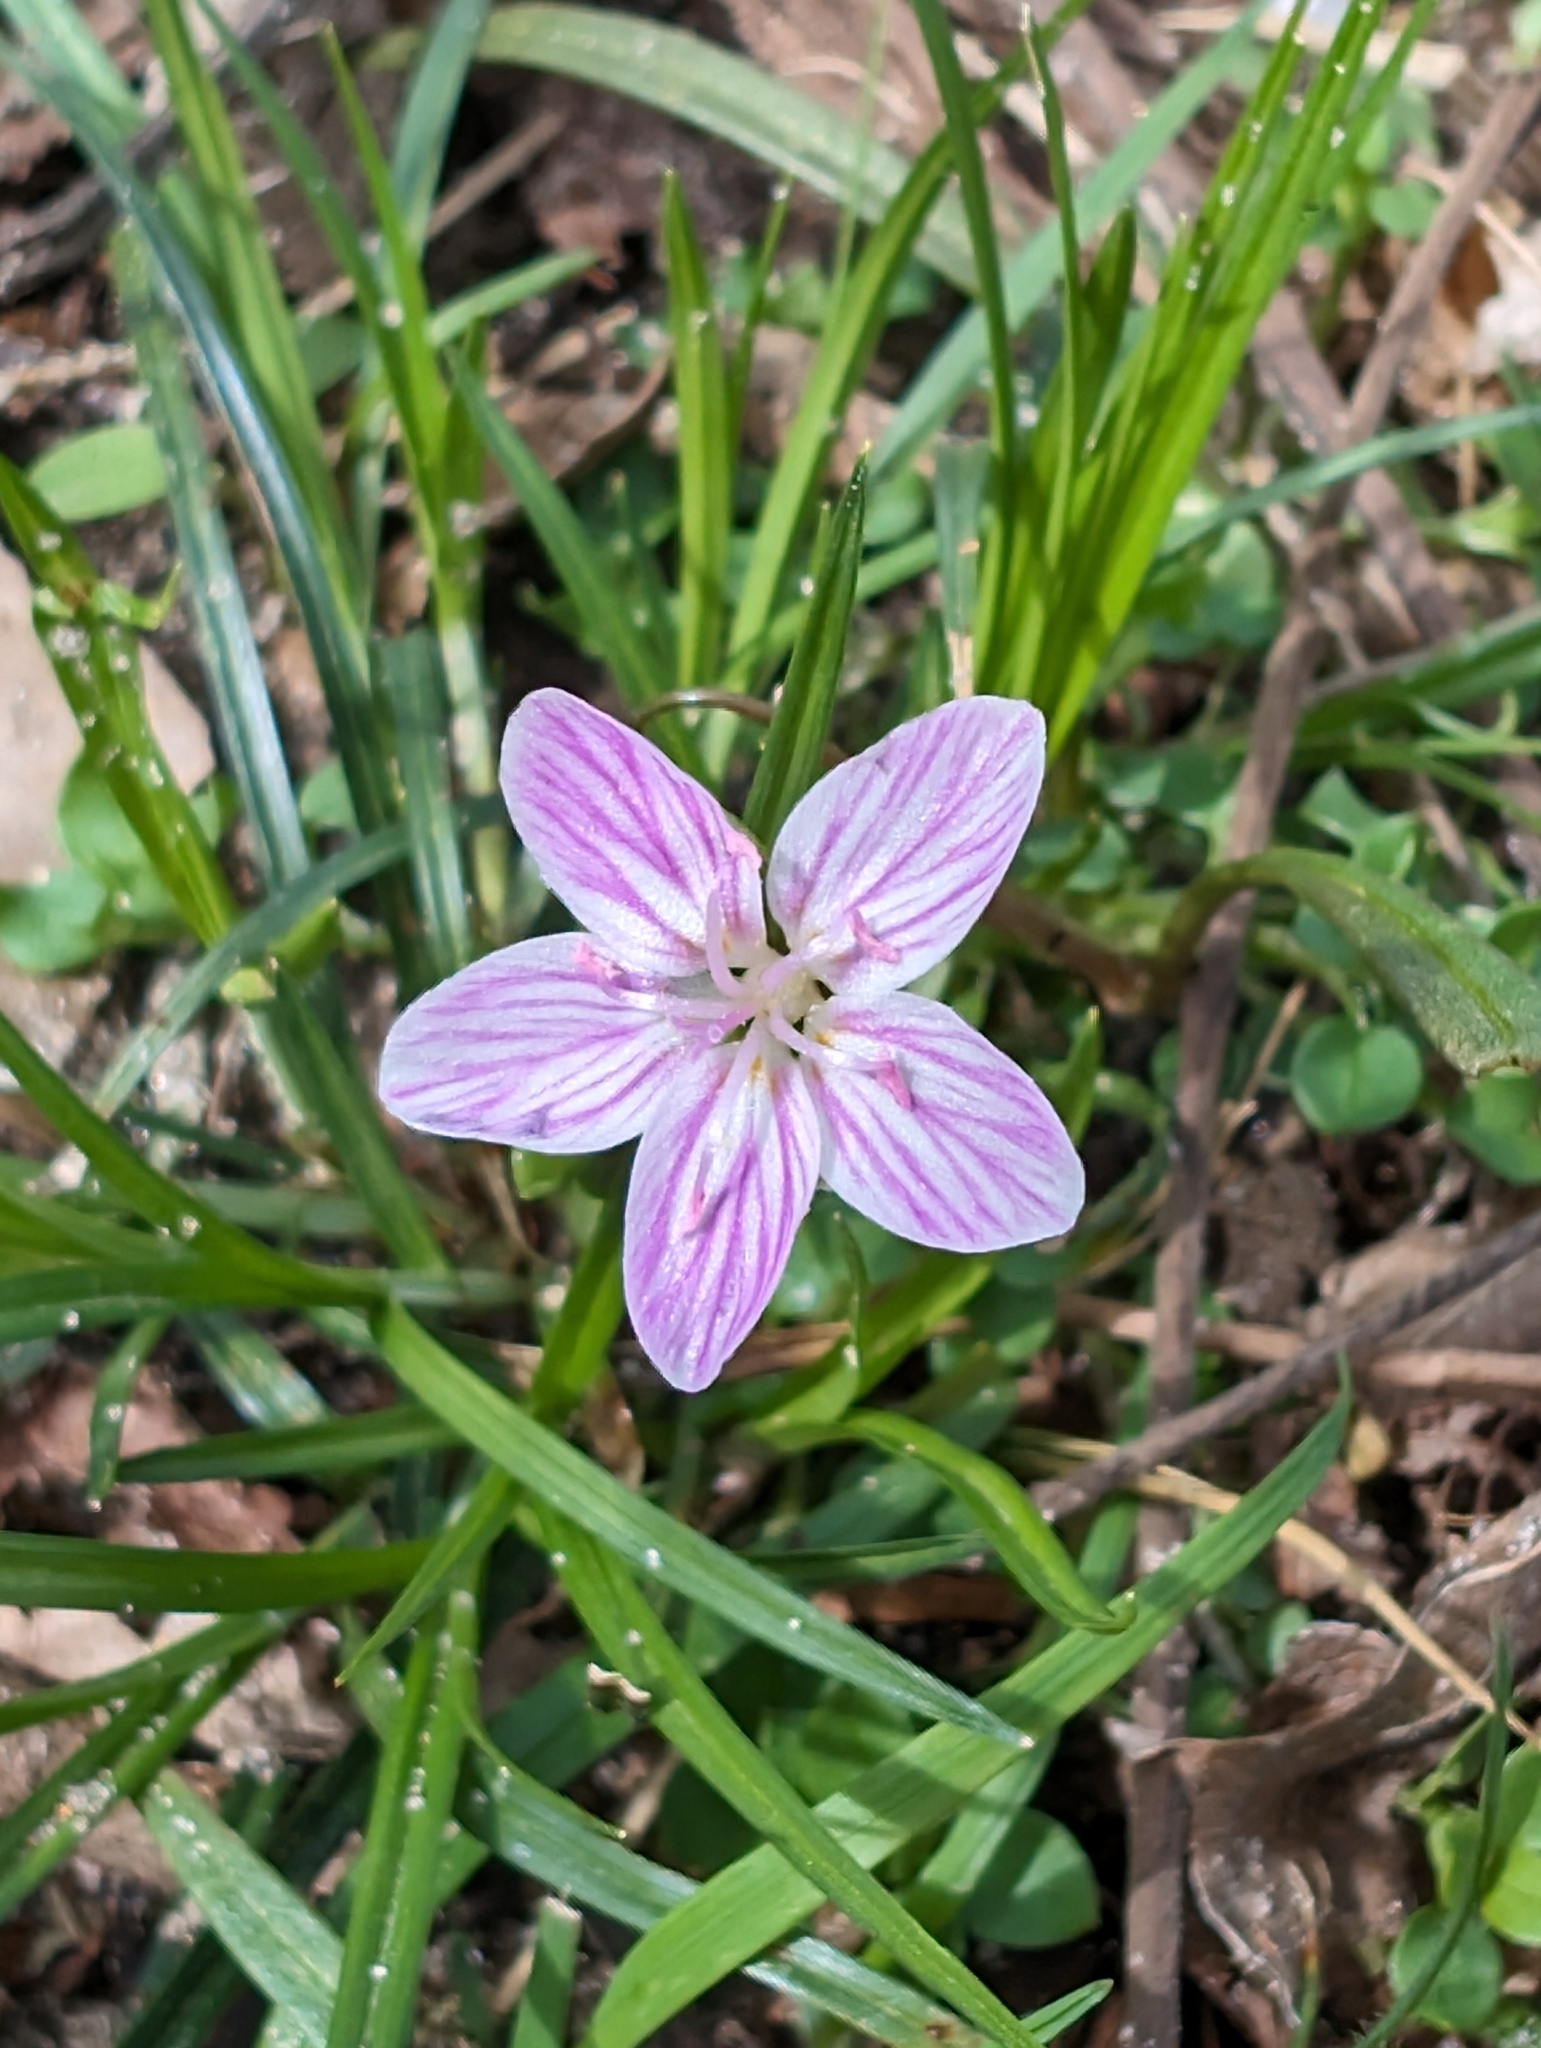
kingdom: Plantae
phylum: Tracheophyta
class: Magnoliopsida
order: Caryophyllales
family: Montiaceae
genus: Claytonia
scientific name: Claytonia virginica
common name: Virginia springbeauty
